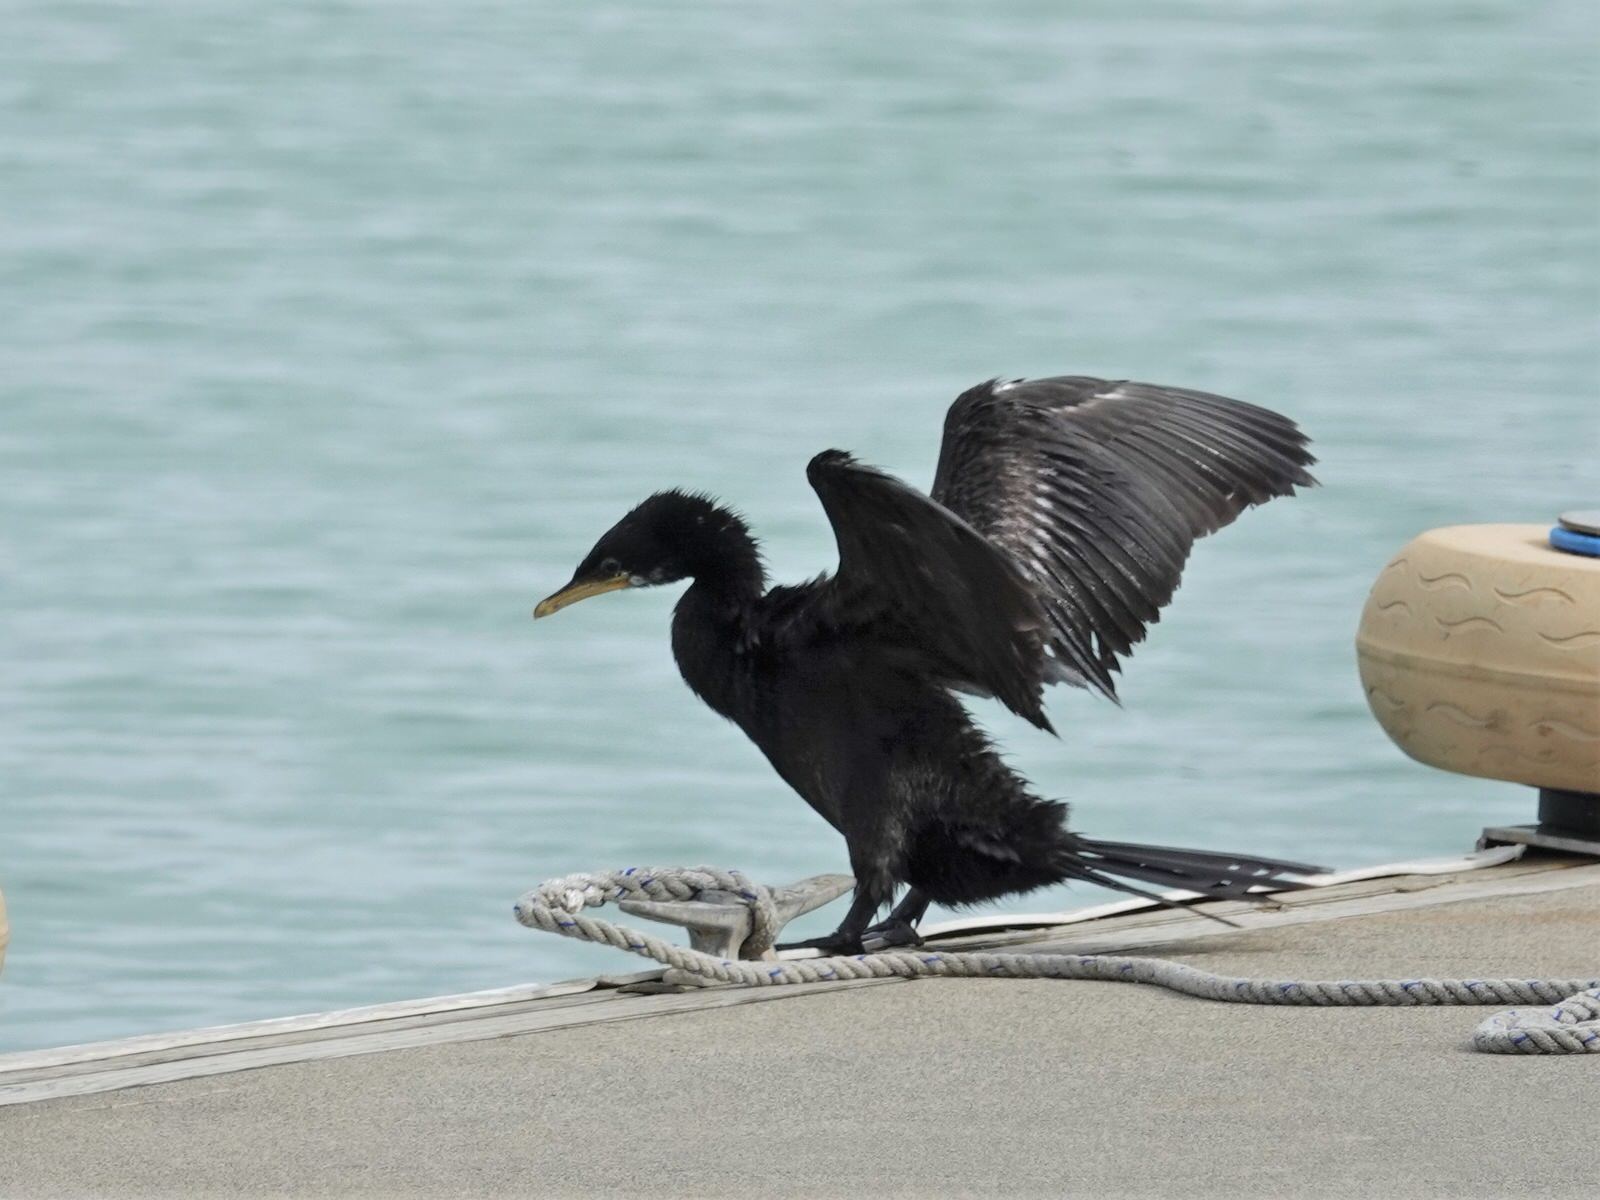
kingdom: Animalia
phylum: Chordata
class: Aves
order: Suliformes
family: Phalacrocoracidae
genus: Microcarbo
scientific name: Microcarbo melanoleucos
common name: Little pied cormorant
